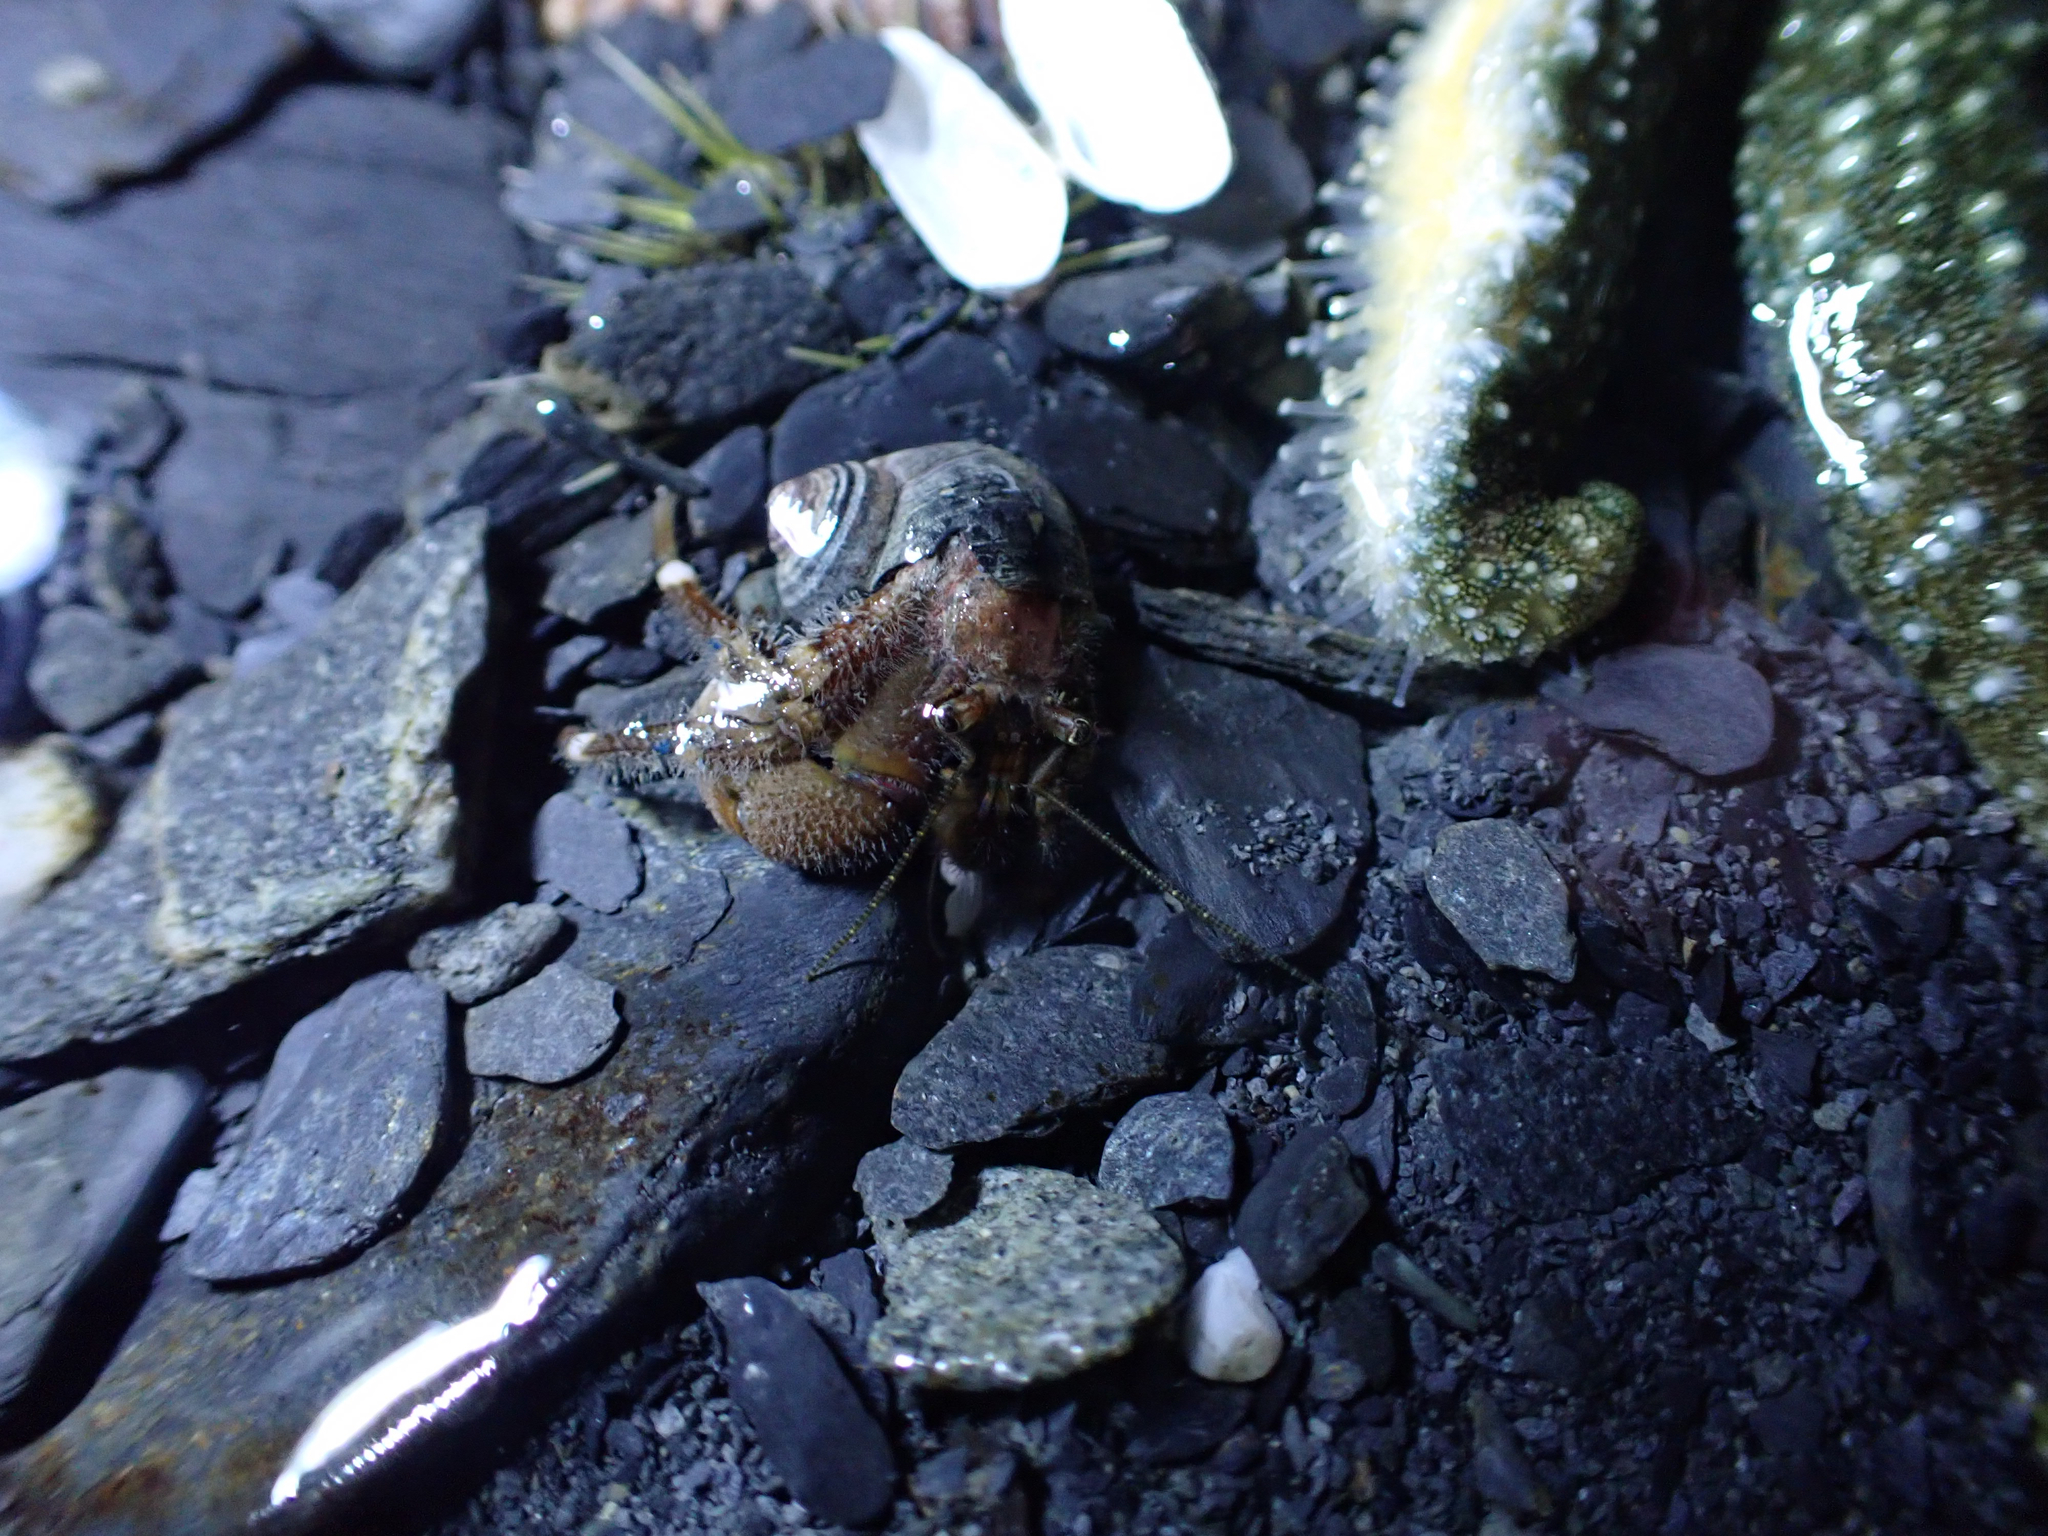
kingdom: Animalia
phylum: Arthropoda
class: Malacostraca
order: Decapoda
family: Paguridae
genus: Pagurus
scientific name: Pagurus hirsutiusculus
